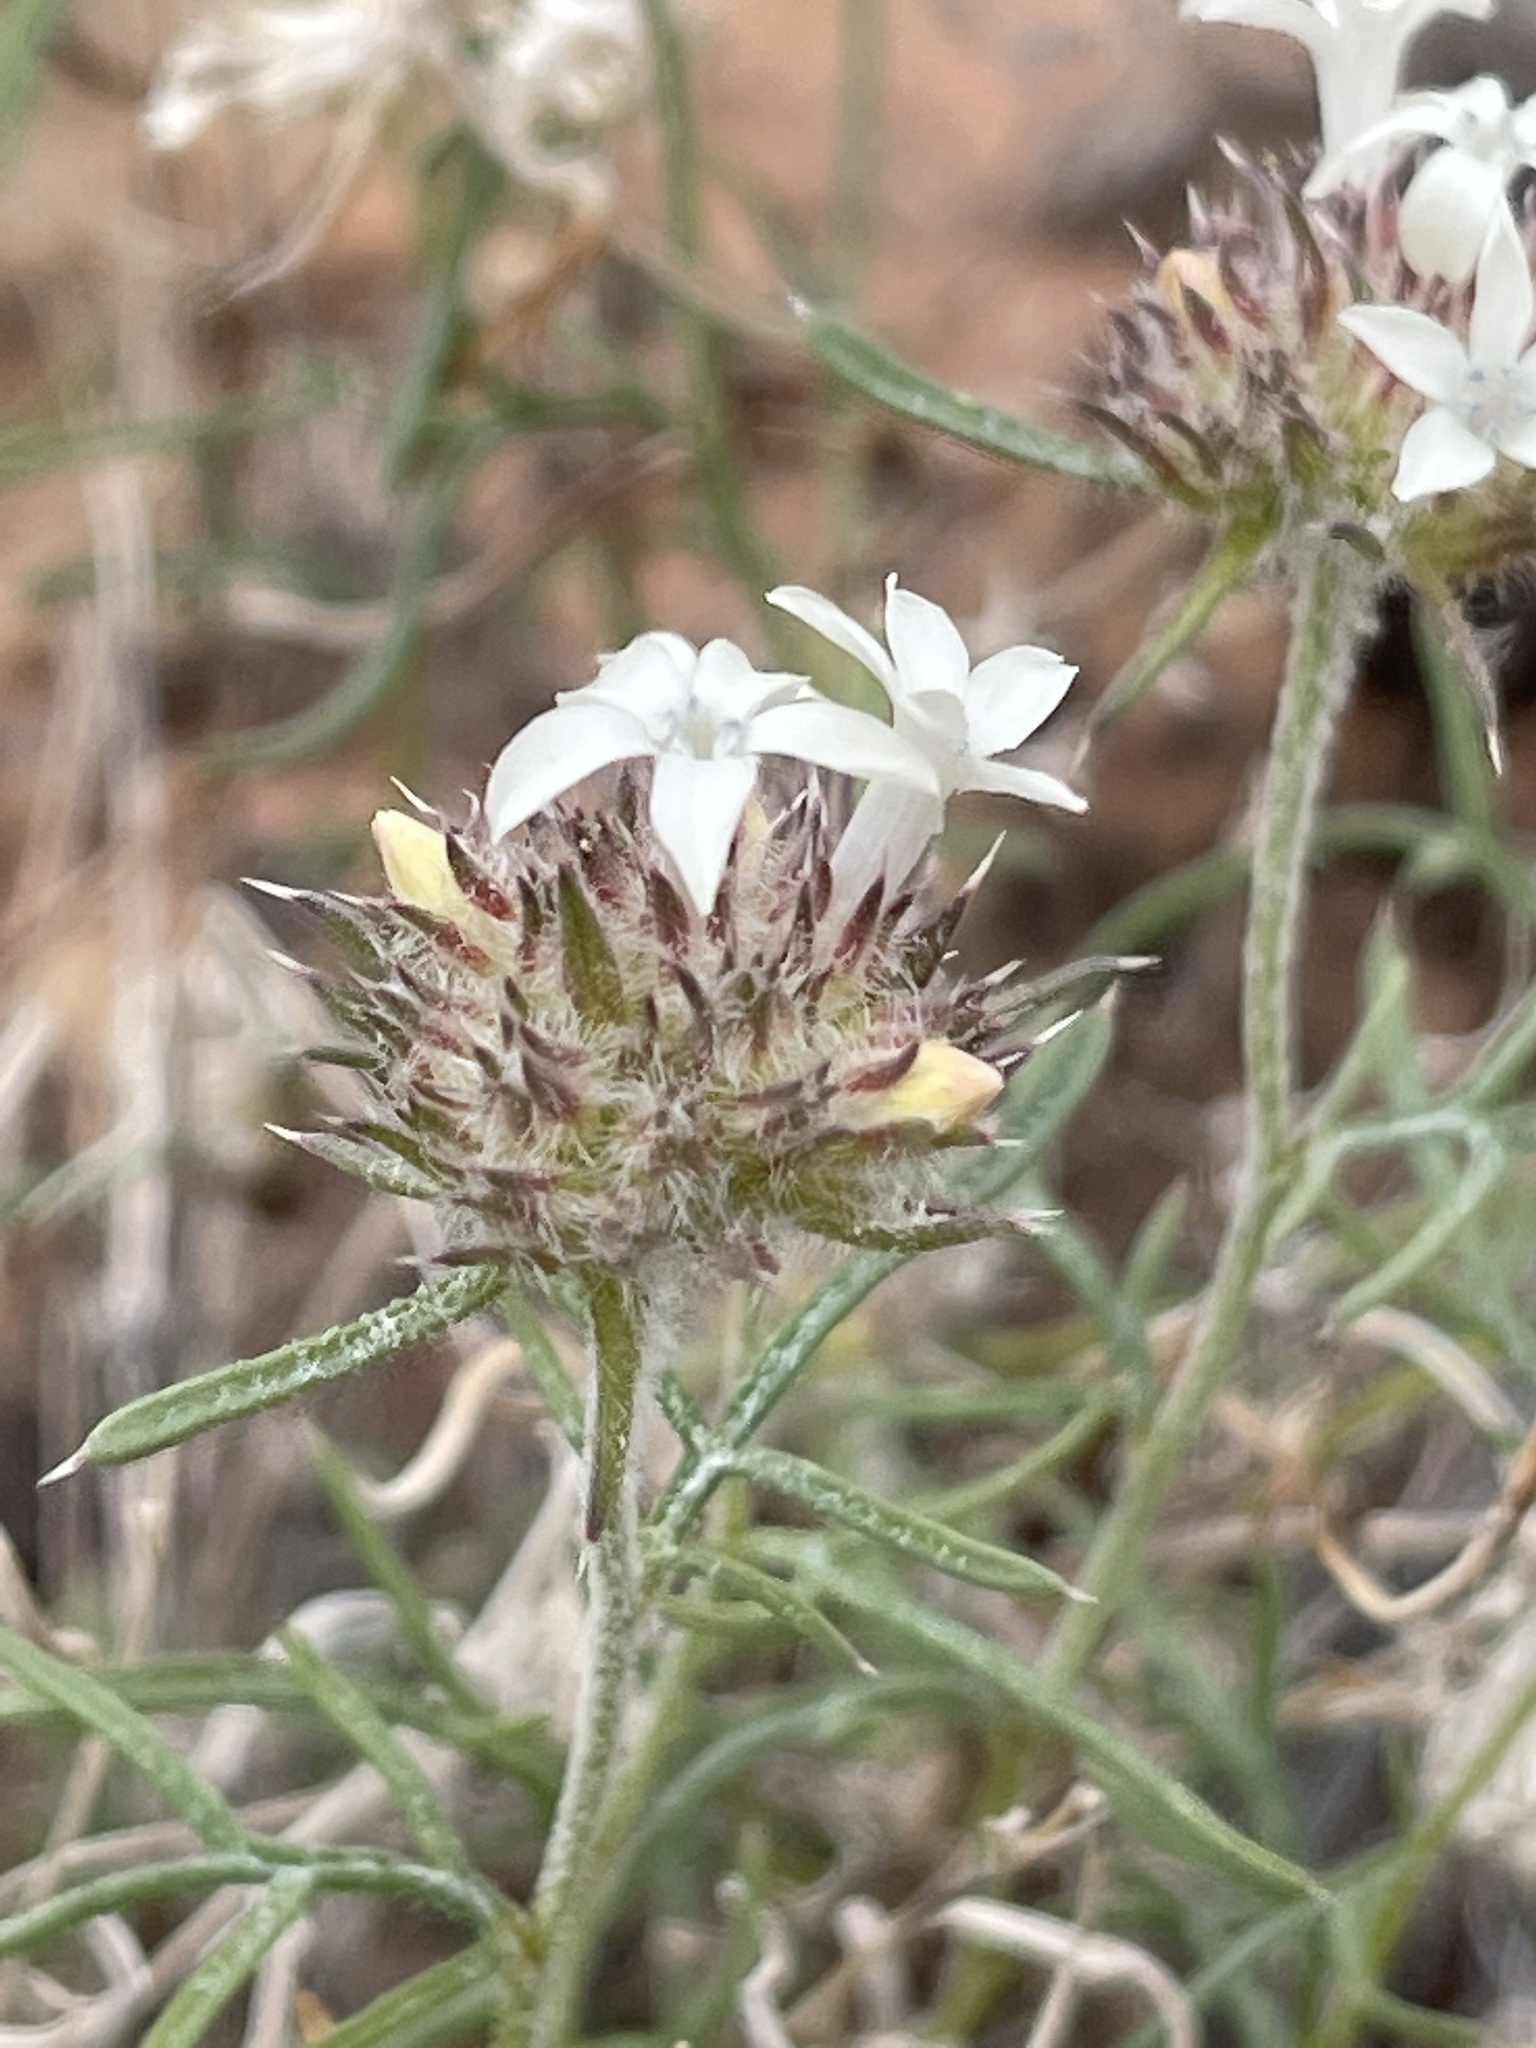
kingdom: Plantae
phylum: Tracheophyta
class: Magnoliopsida
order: Ericales
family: Polemoniaceae
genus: Ipomopsis
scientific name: Ipomopsis congesta
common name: Ball-head gilia
